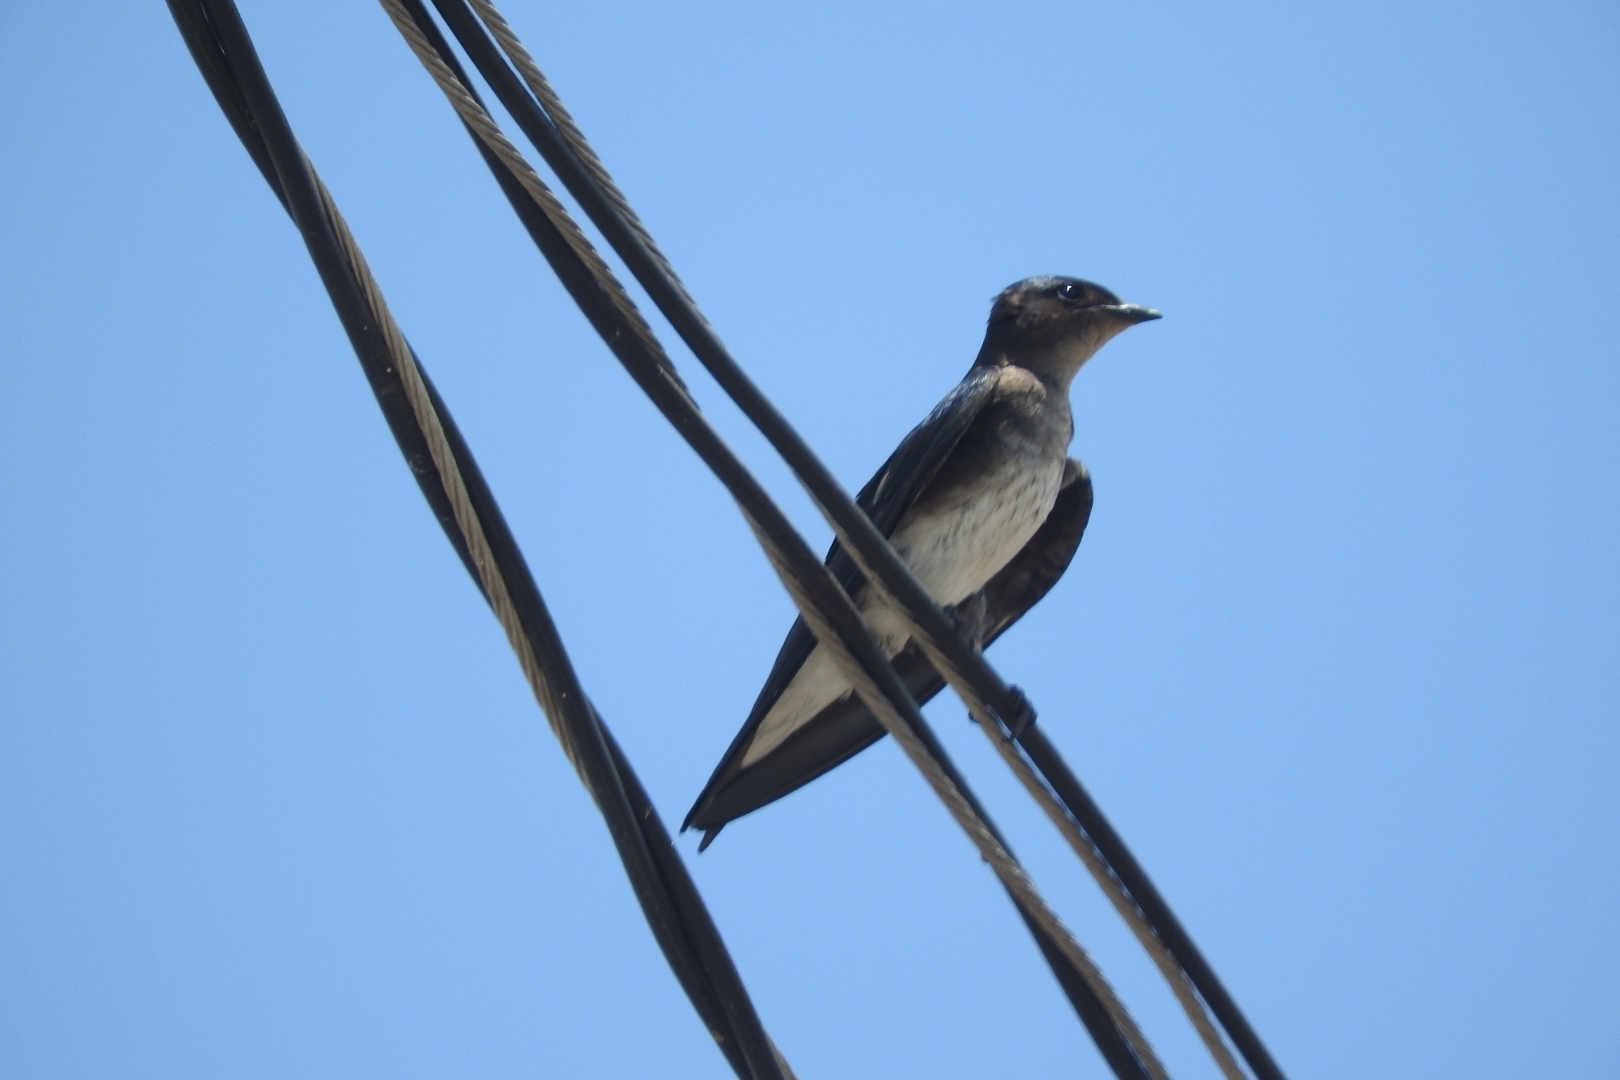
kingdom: Animalia
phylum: Chordata
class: Aves
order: Passeriformes
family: Hirundinidae
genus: Progne
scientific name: Progne chalybea
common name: Grey-breasted martin
